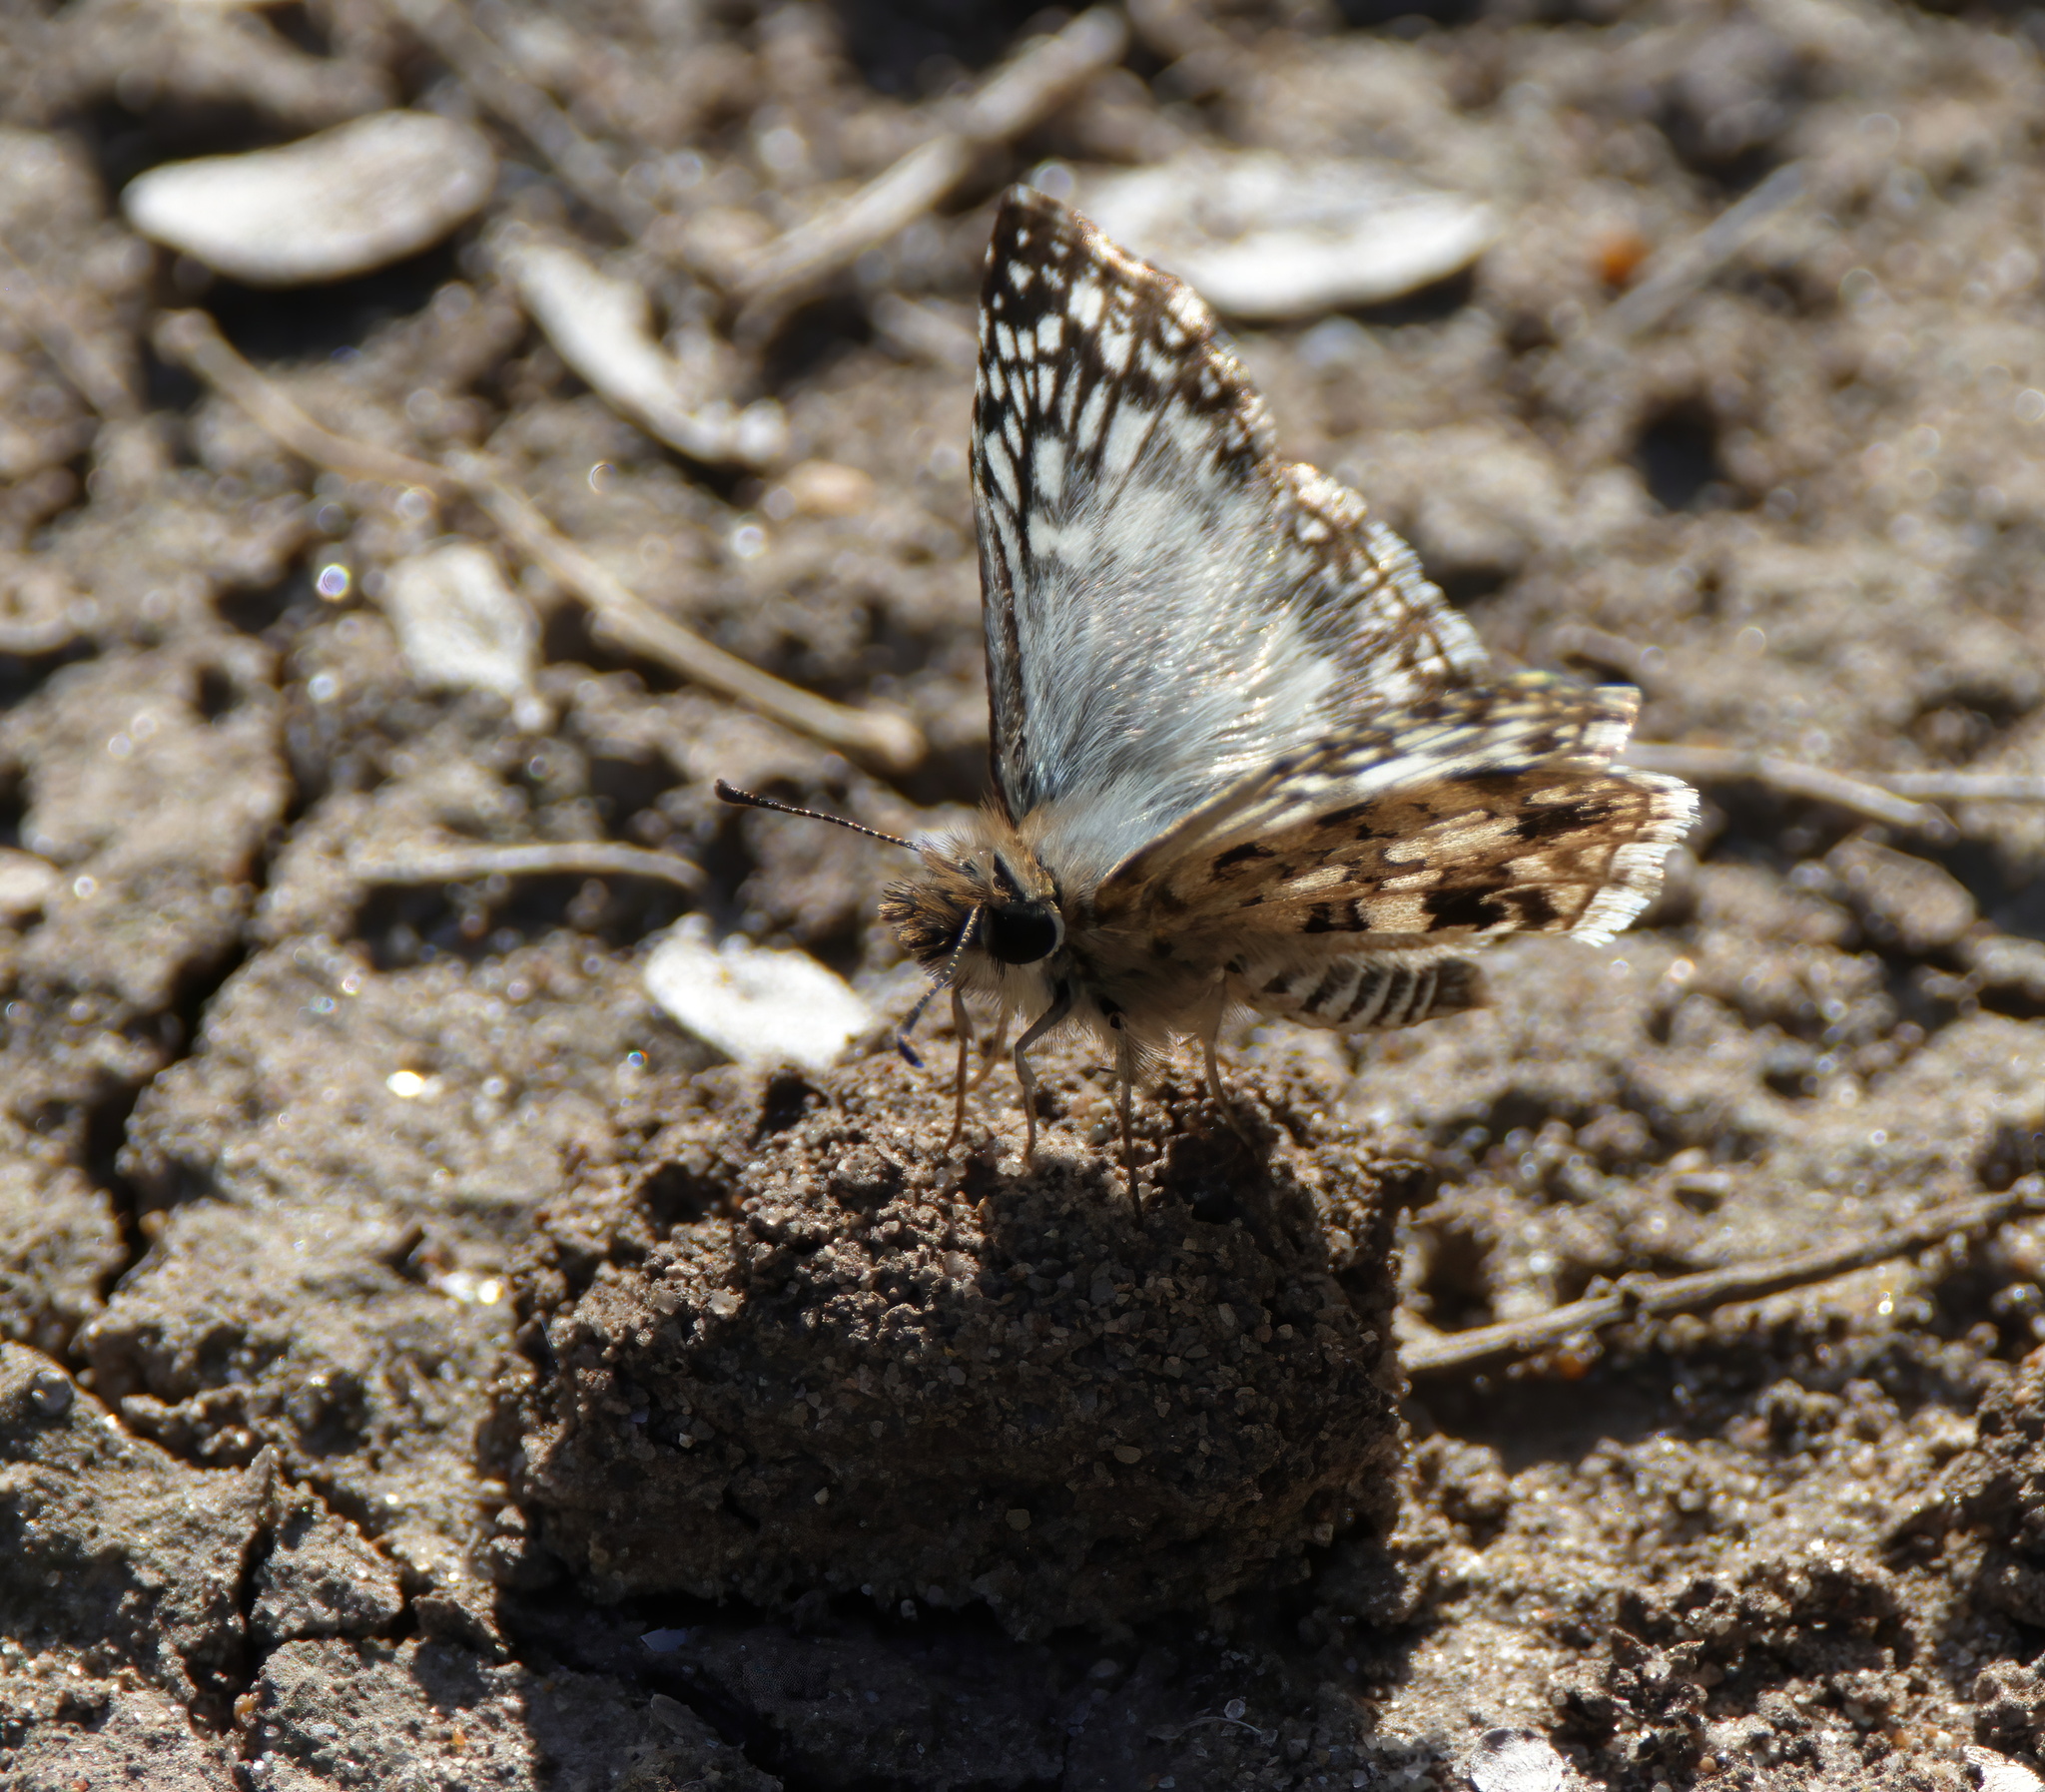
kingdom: Animalia
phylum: Arthropoda
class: Insecta
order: Lepidoptera
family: Hesperiidae
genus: Pyrgus
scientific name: Pyrgus oileus
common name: Tropical checkered-skipper
